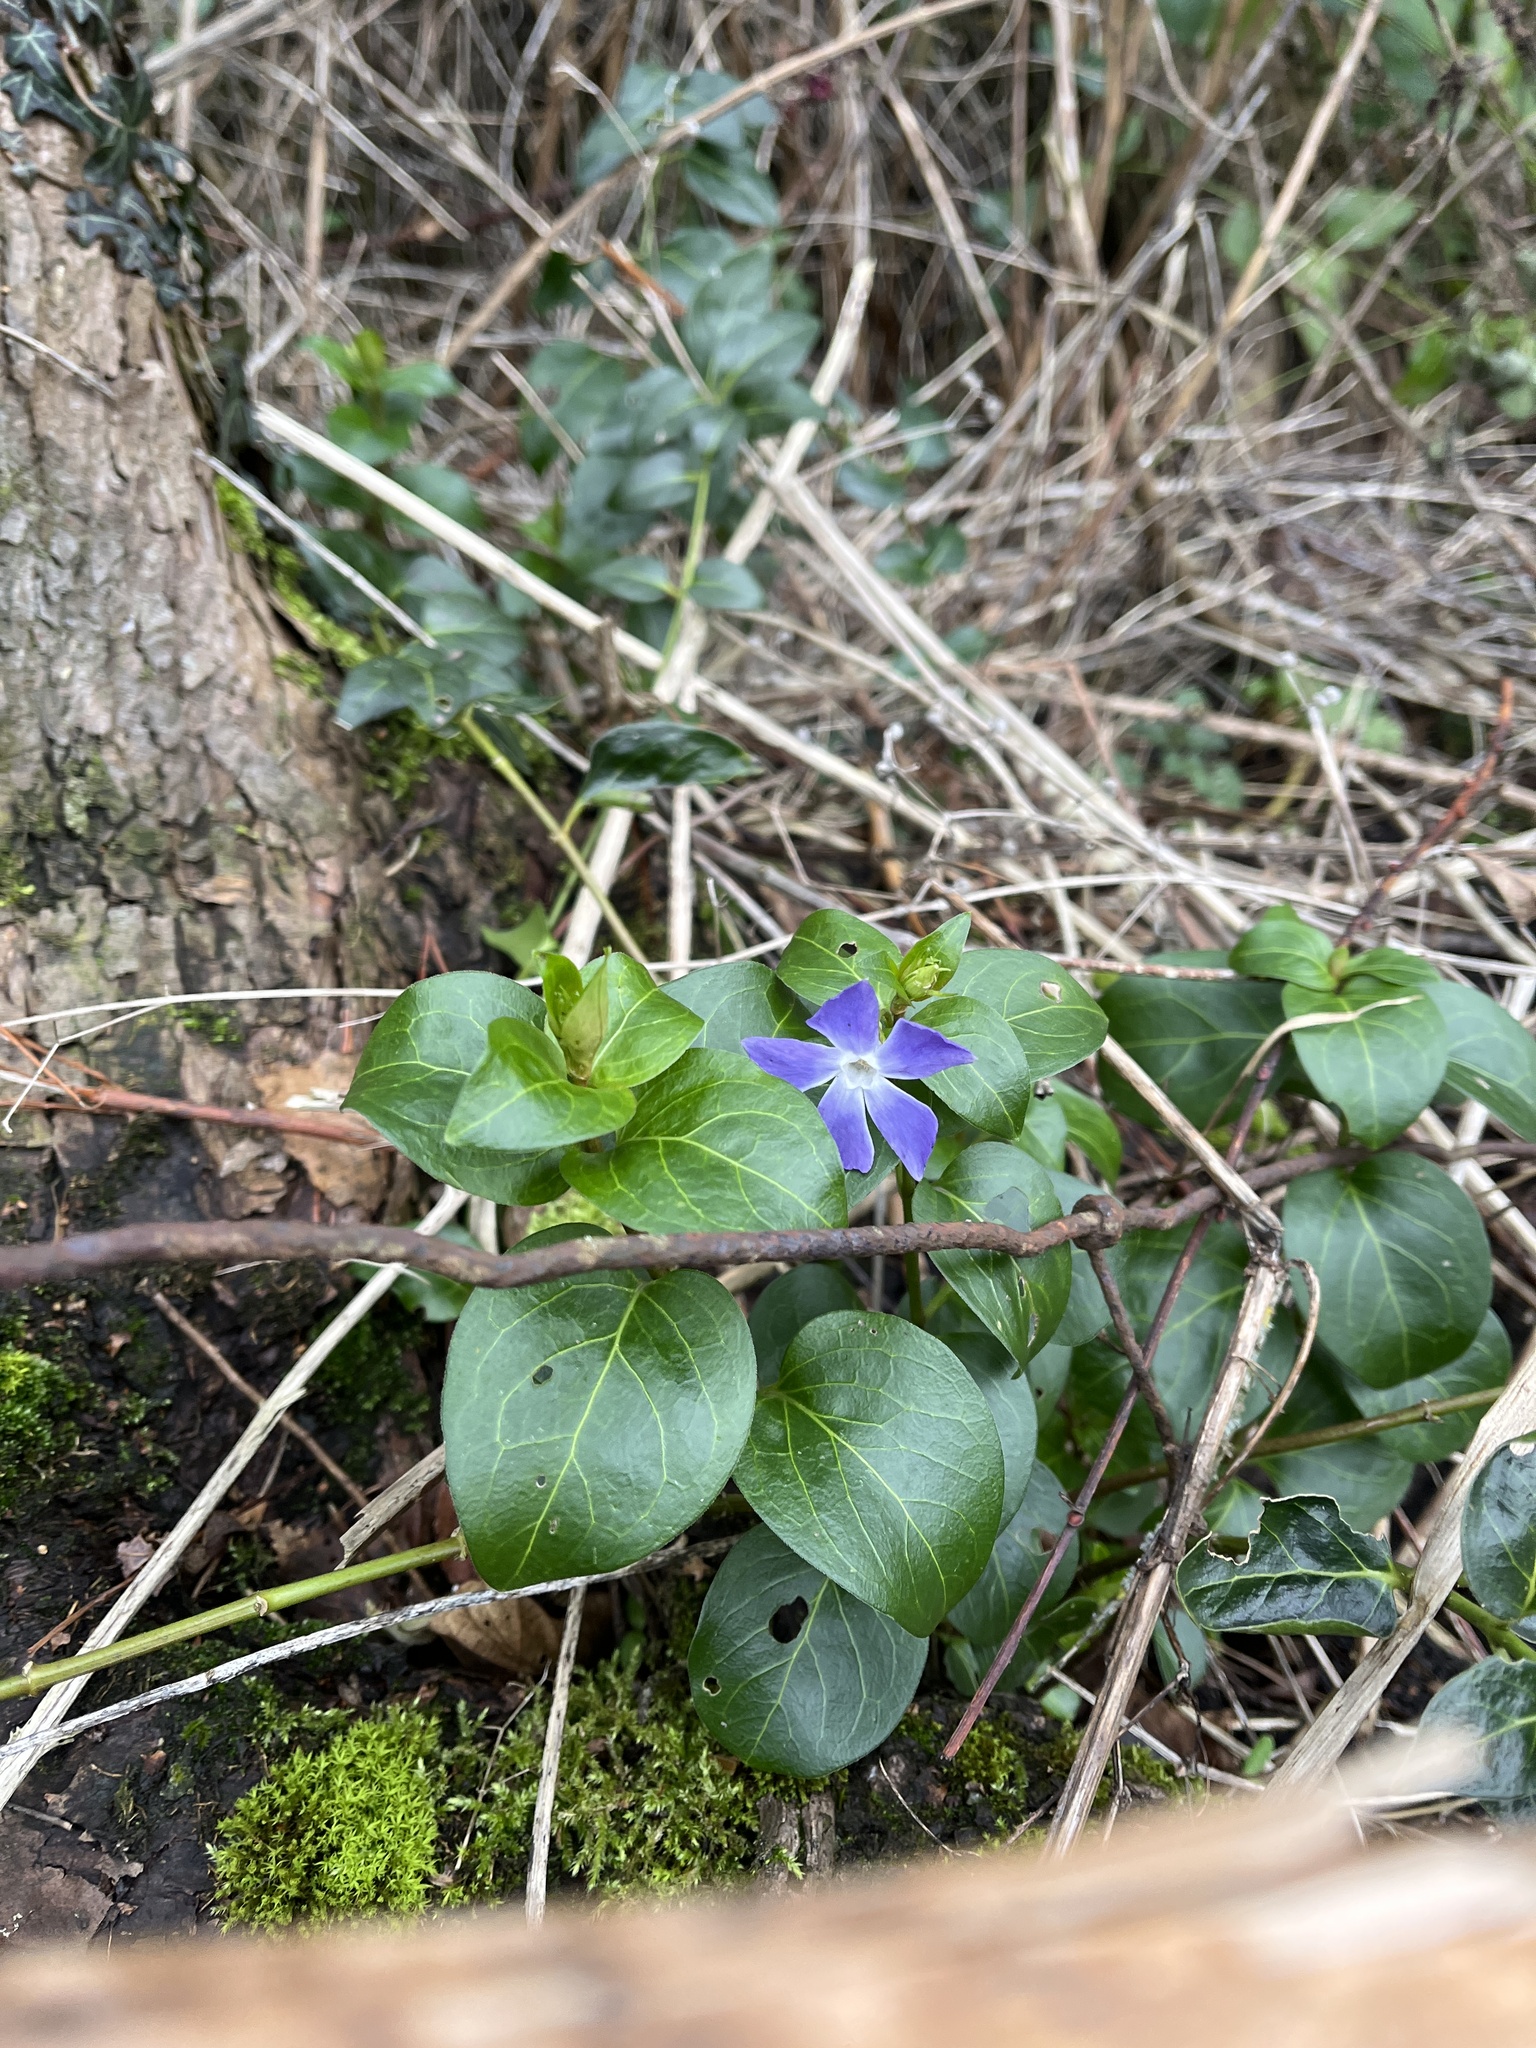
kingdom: Plantae
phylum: Tracheophyta
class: Magnoliopsida
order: Gentianales
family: Apocynaceae
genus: Vinca
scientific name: Vinca major
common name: Greater periwinkle
